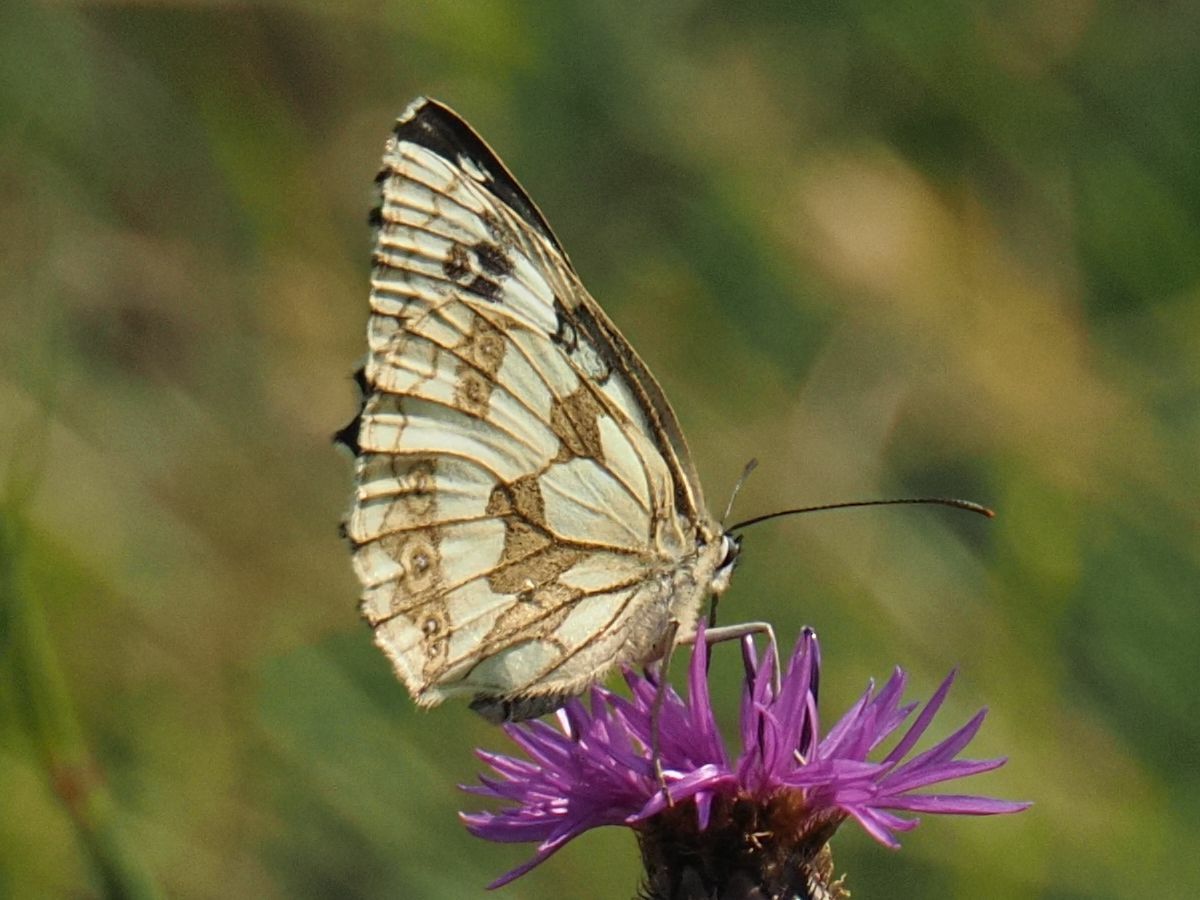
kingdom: Animalia
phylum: Arthropoda
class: Insecta
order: Lepidoptera
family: Nymphalidae
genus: Melanargia
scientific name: Melanargia galathea
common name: Marbled white
